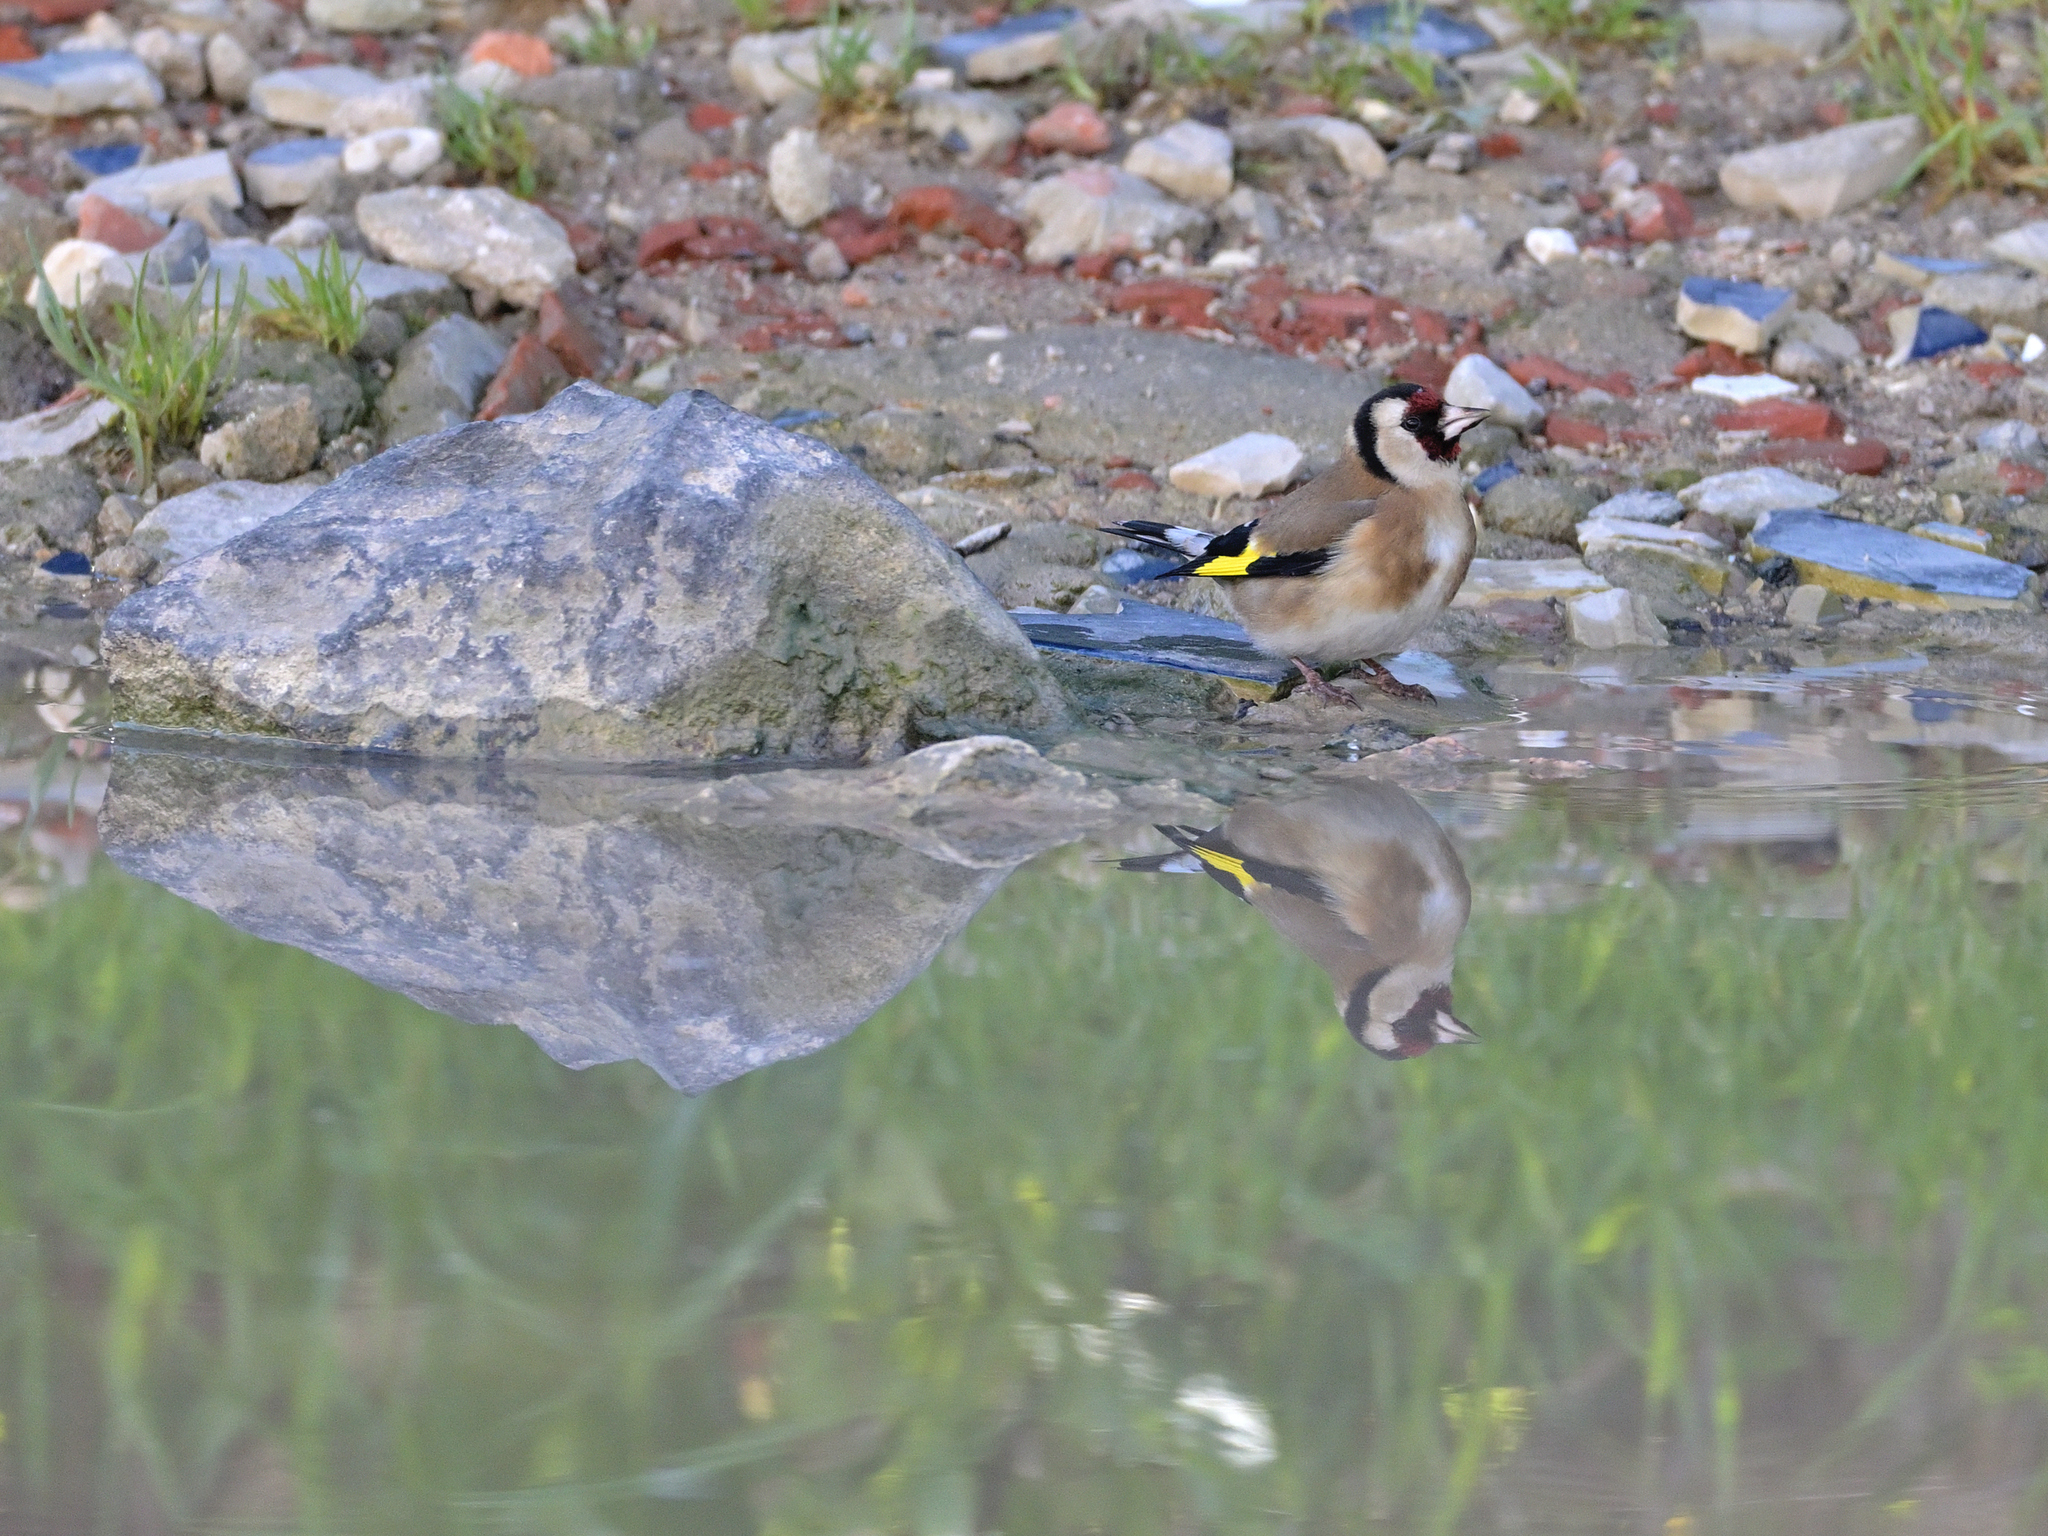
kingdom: Animalia
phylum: Chordata
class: Aves
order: Passeriformes
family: Fringillidae
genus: Carduelis
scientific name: Carduelis carduelis
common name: European goldfinch
